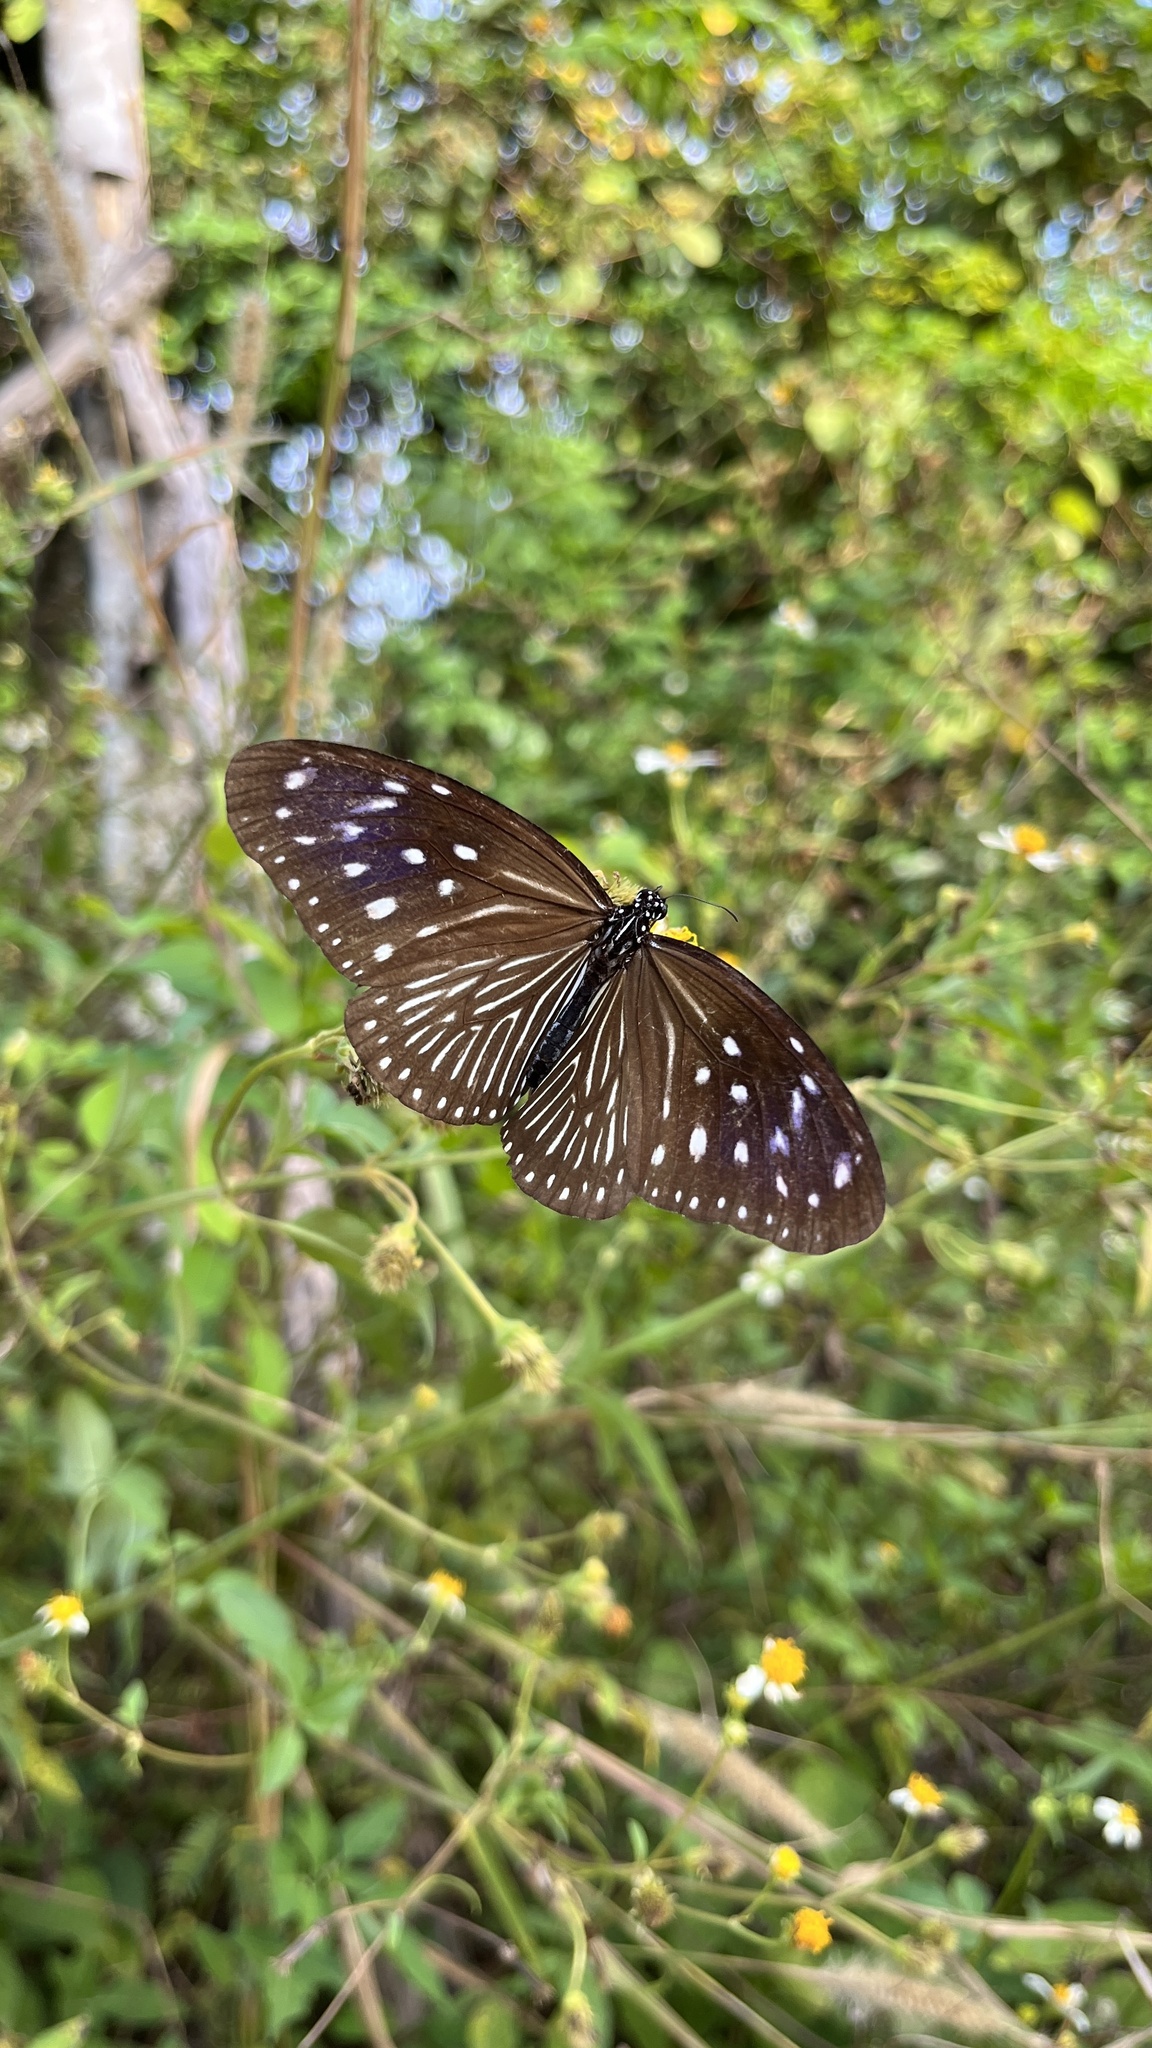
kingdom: Animalia
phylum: Arthropoda
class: Insecta
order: Lepidoptera
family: Nymphalidae
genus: Euploea
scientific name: Euploea mulciber
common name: Striped blue crow butterfly
